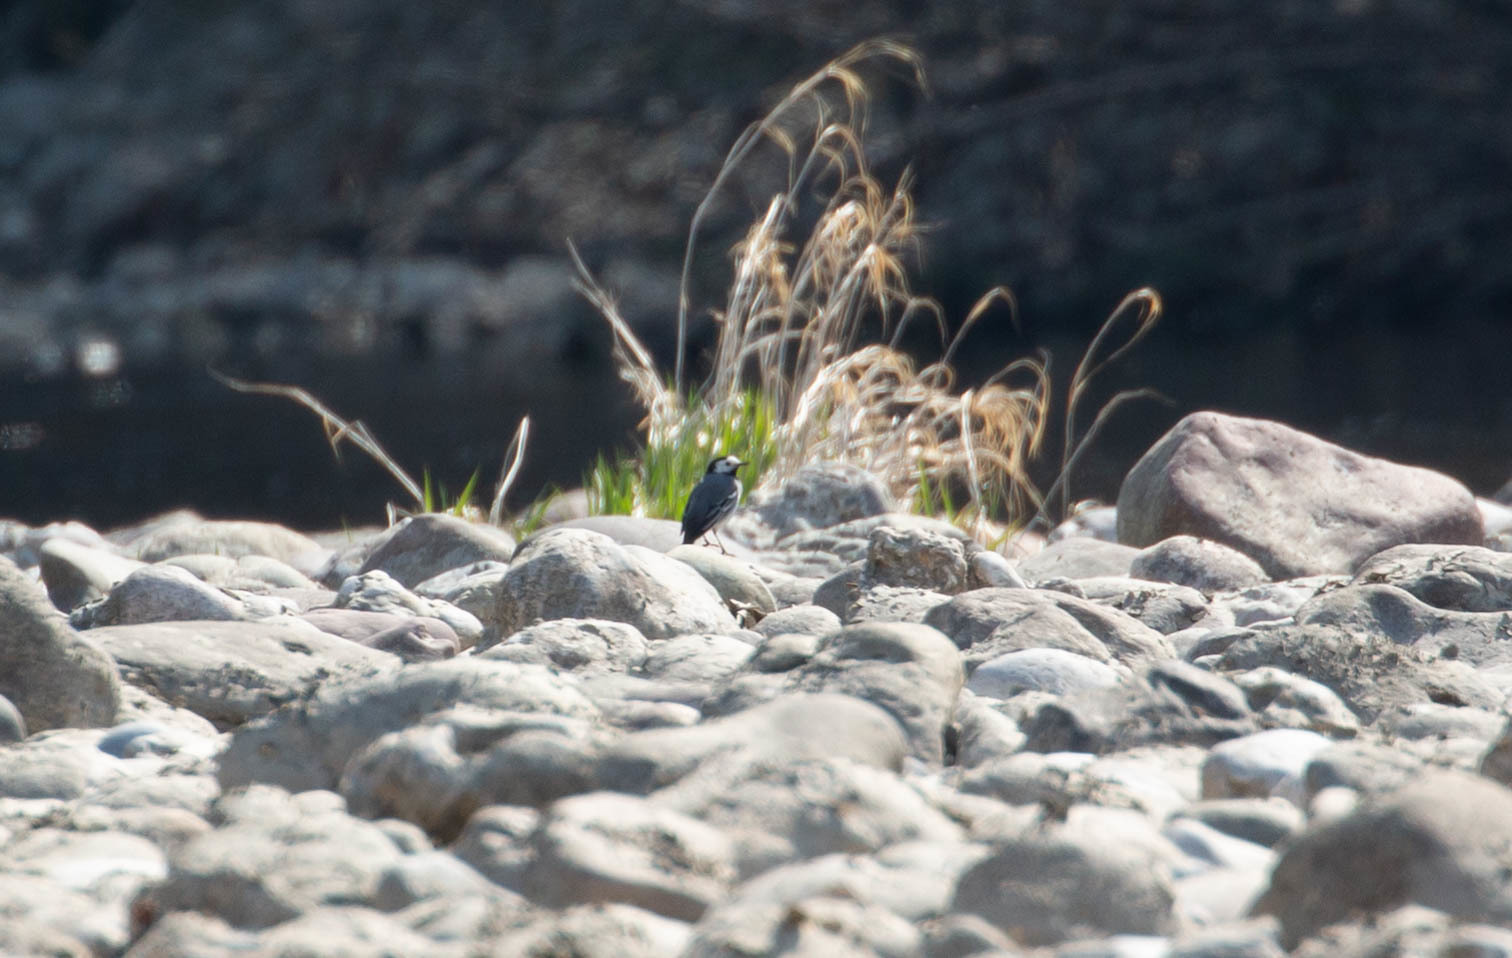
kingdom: Animalia
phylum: Chordata
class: Aves
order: Passeriformes
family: Motacillidae
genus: Motacilla
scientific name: Motacilla alba
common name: White wagtail
